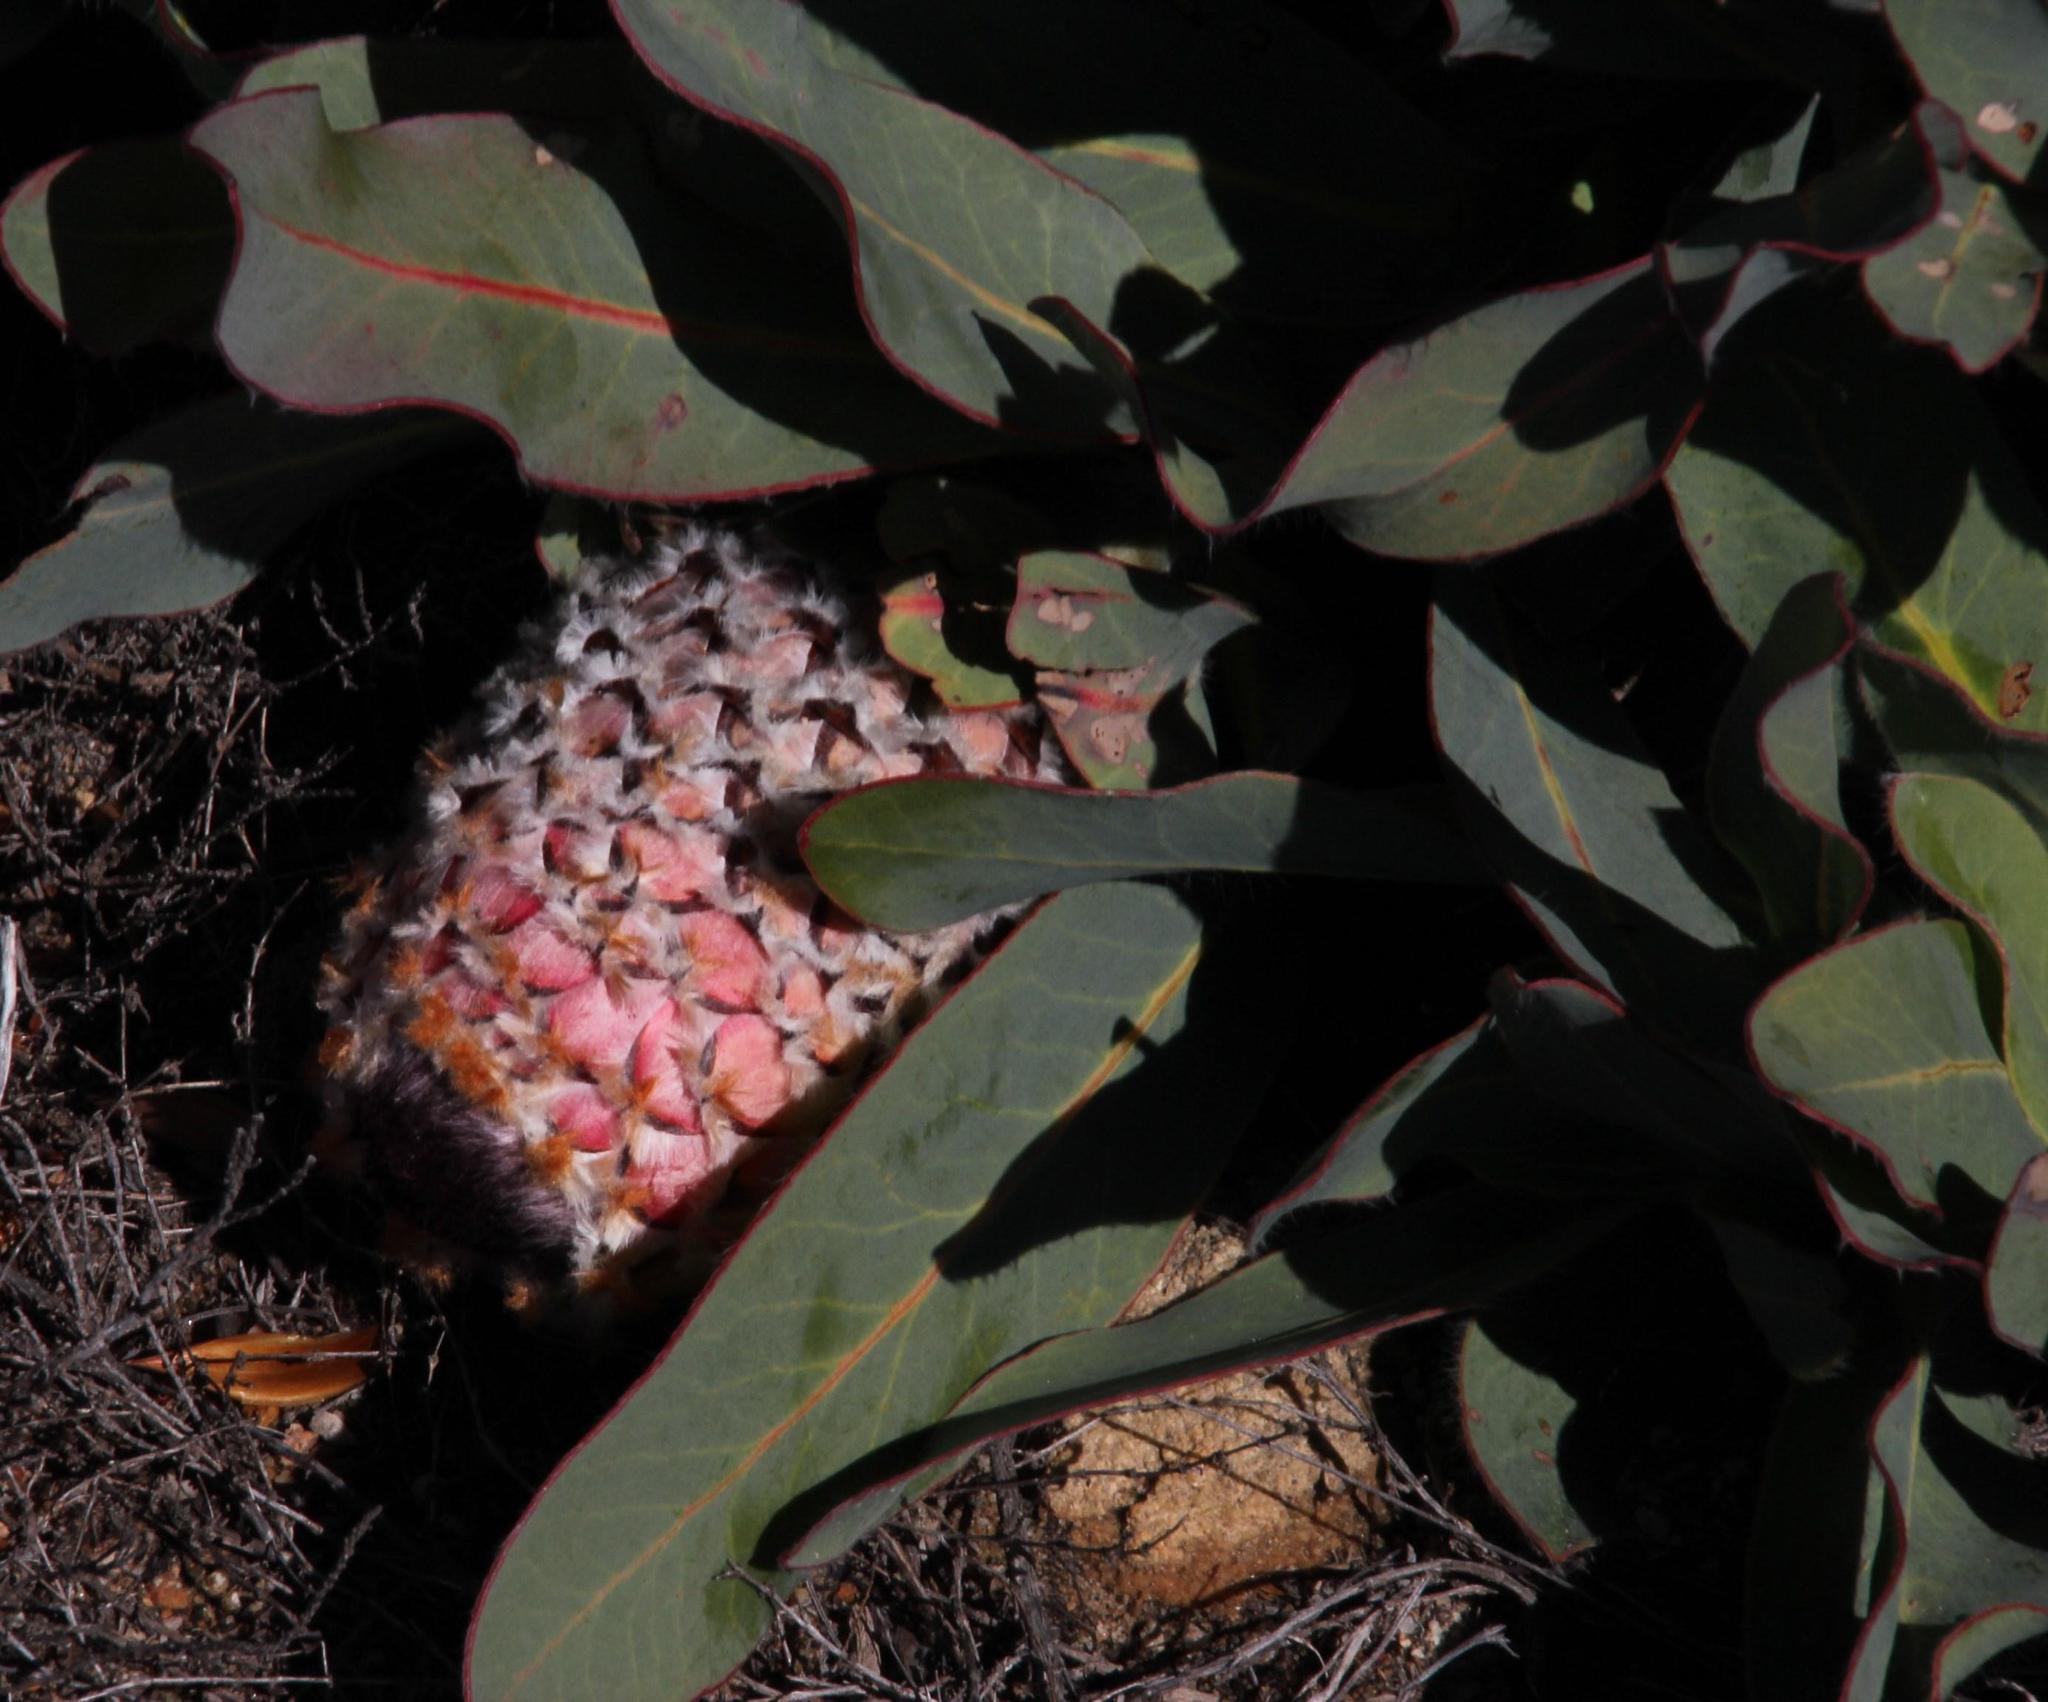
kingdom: Plantae
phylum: Tracheophyta
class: Magnoliopsida
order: Proteales
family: Proteaceae
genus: Protea
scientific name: Protea magnifica
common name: Bearded sugarbush
